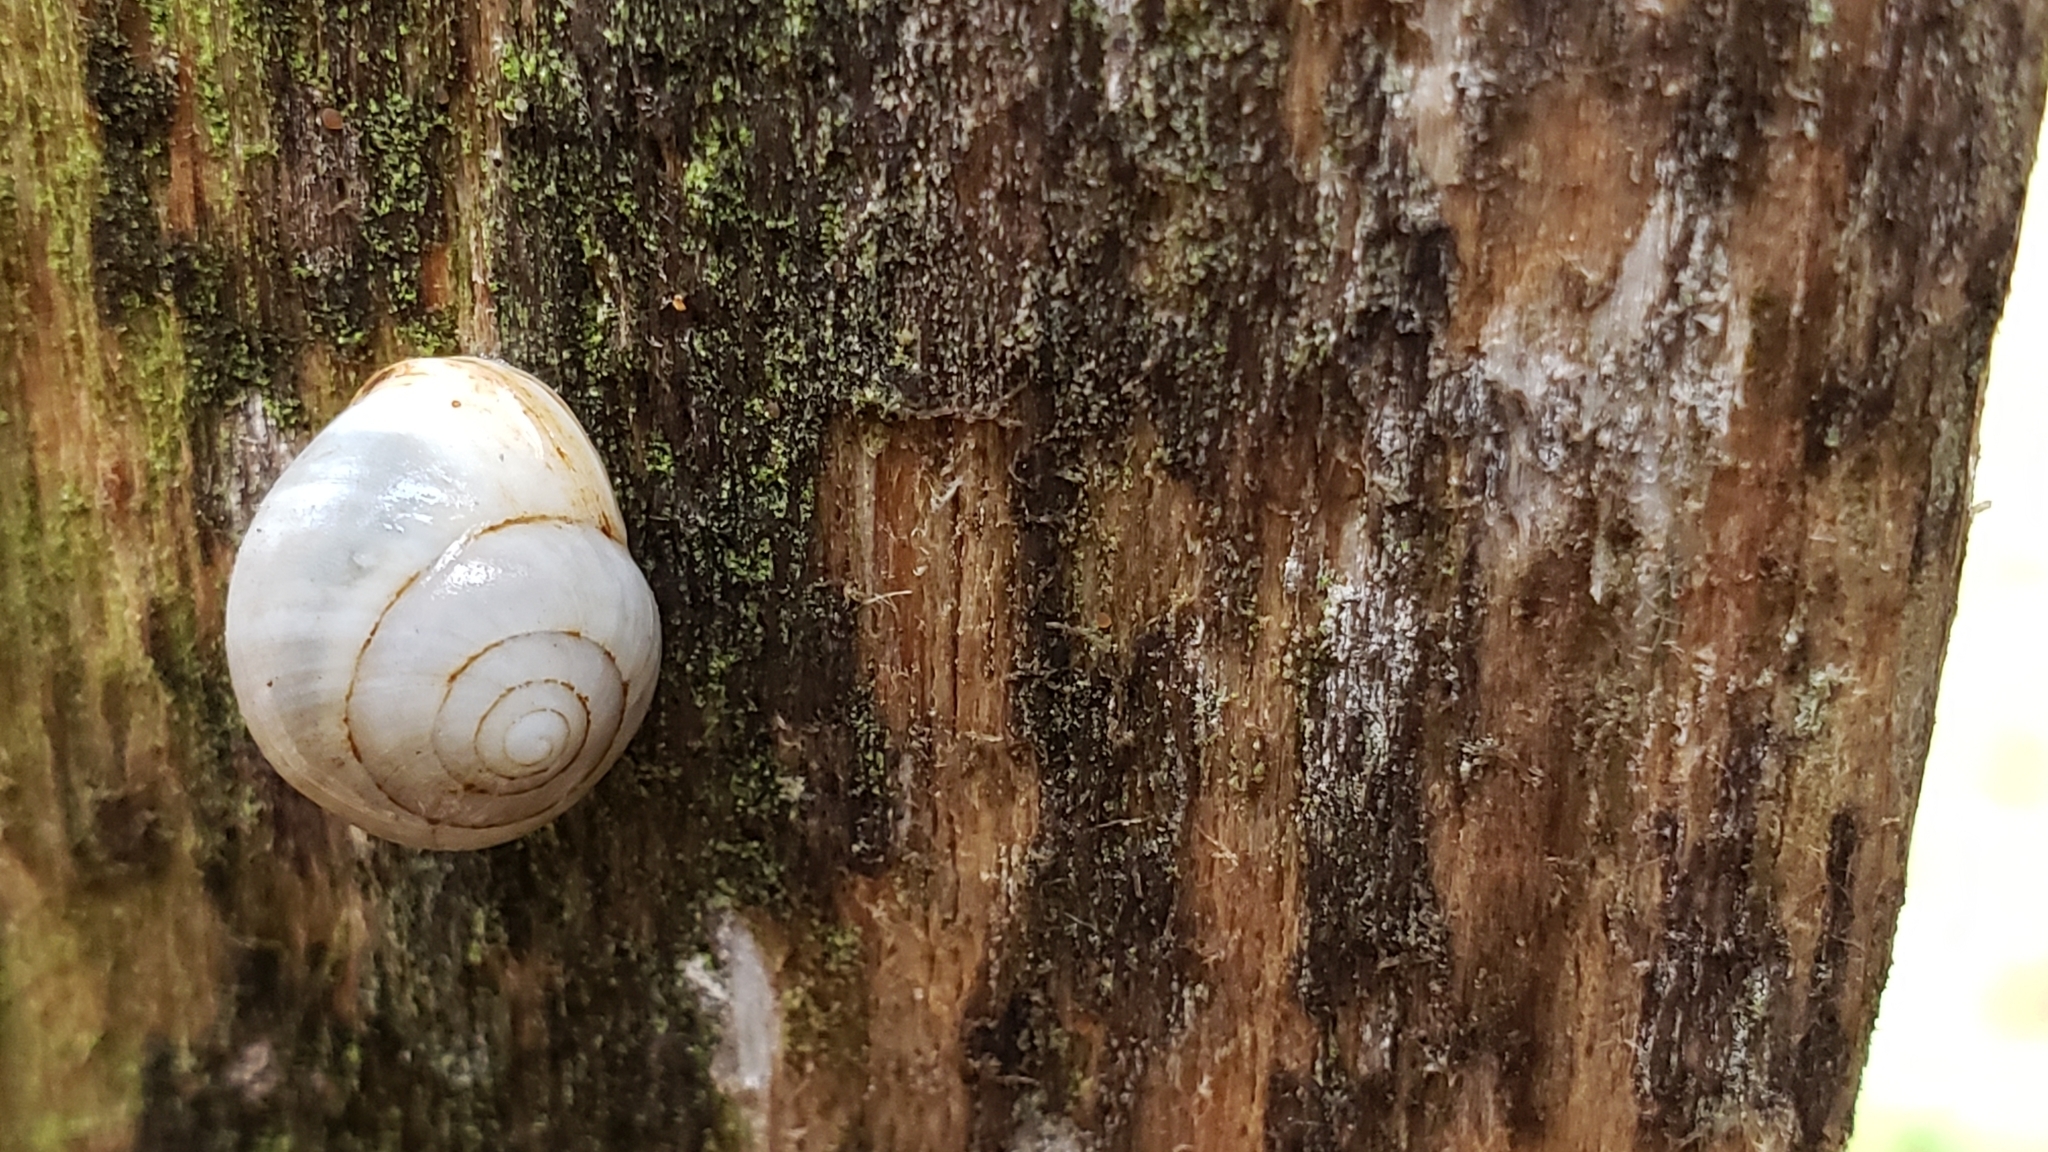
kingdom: Animalia
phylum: Mollusca
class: Gastropoda
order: Cycloneritida
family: Helicinidae
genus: Helicina
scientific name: Helicina orbiculata
